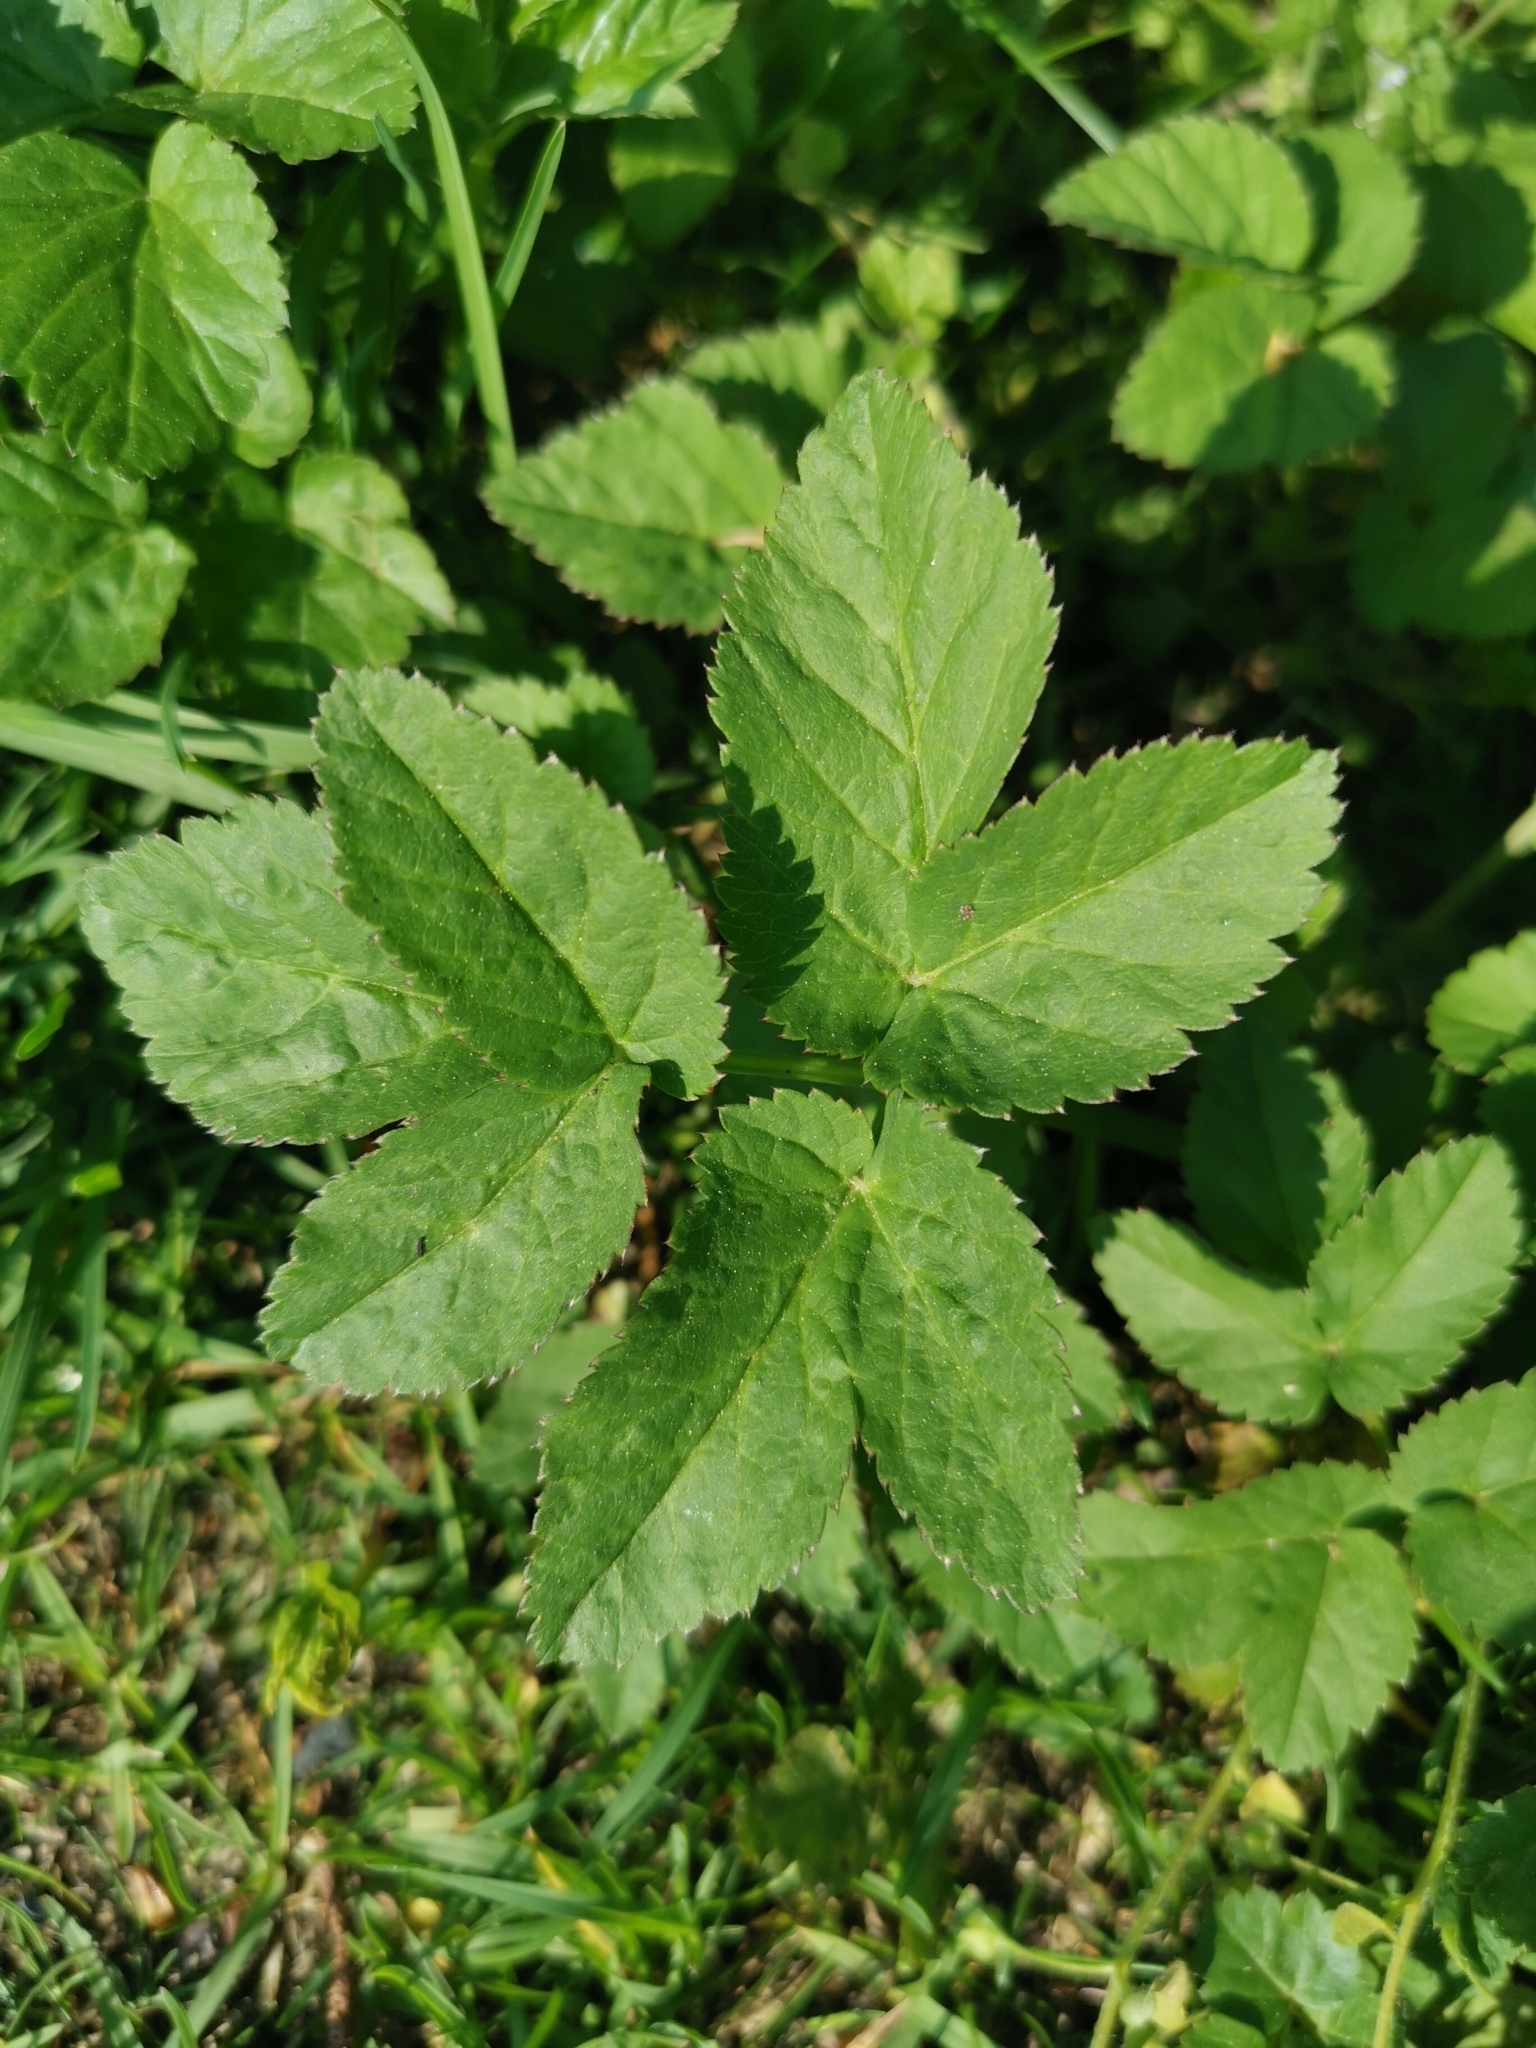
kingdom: Plantae
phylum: Tracheophyta
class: Magnoliopsida
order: Apiales
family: Apiaceae
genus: Aegopodium
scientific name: Aegopodium podagraria
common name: Ground-elder
